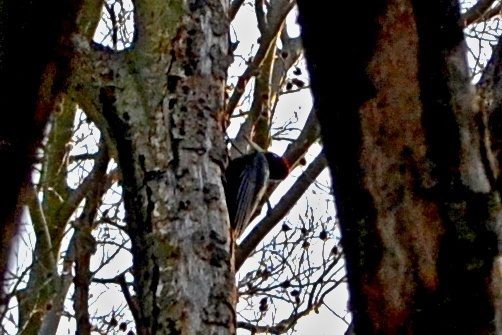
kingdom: Animalia
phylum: Chordata
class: Aves
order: Piciformes
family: Picidae
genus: Dryocopus
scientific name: Dryocopus martius
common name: Black woodpecker
